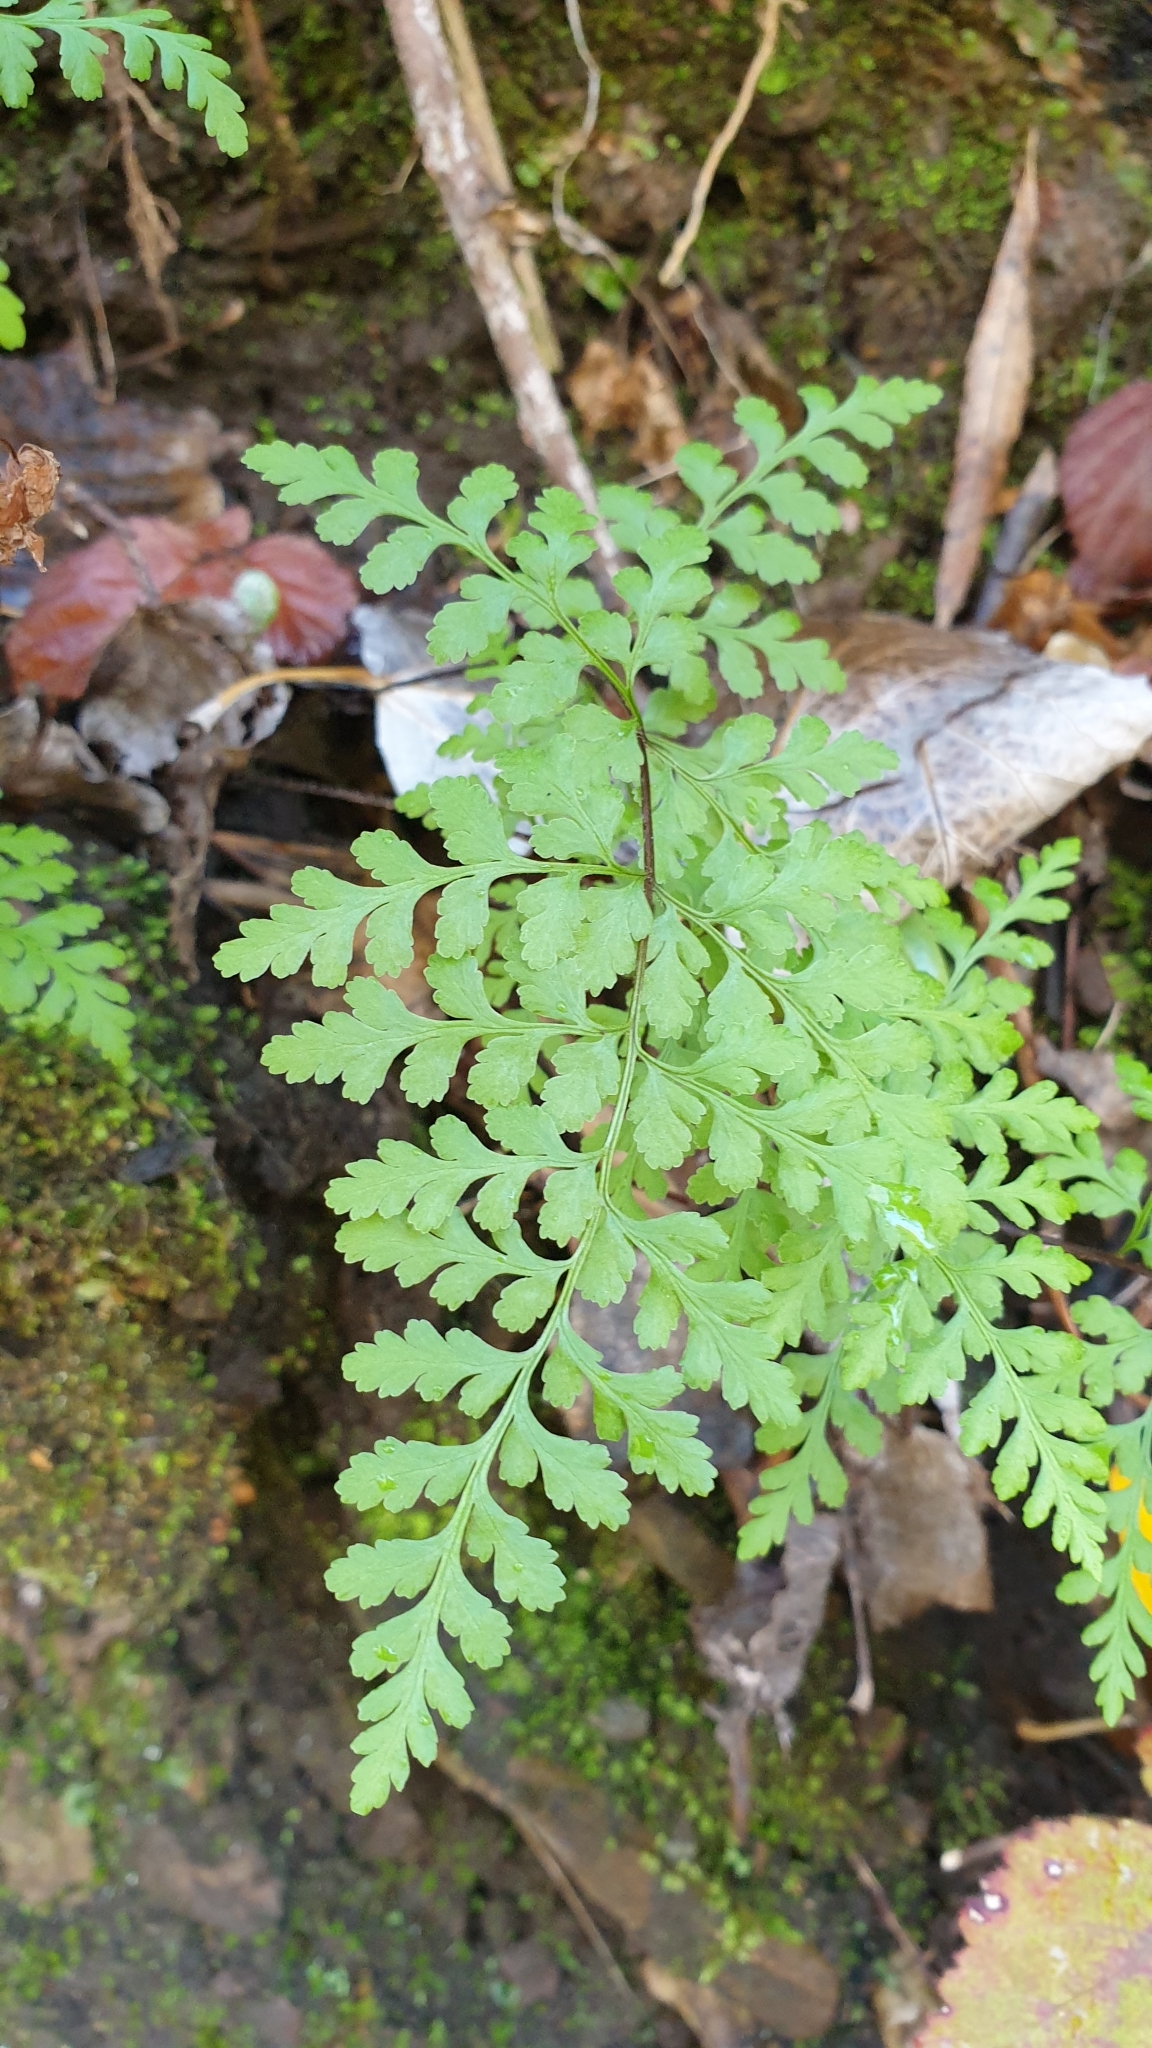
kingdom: Plantae
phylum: Tracheophyta
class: Polypodiopsida
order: Polypodiales
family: Pteridaceae
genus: Cheilanthes
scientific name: Cheilanthes austrotenuifolia
